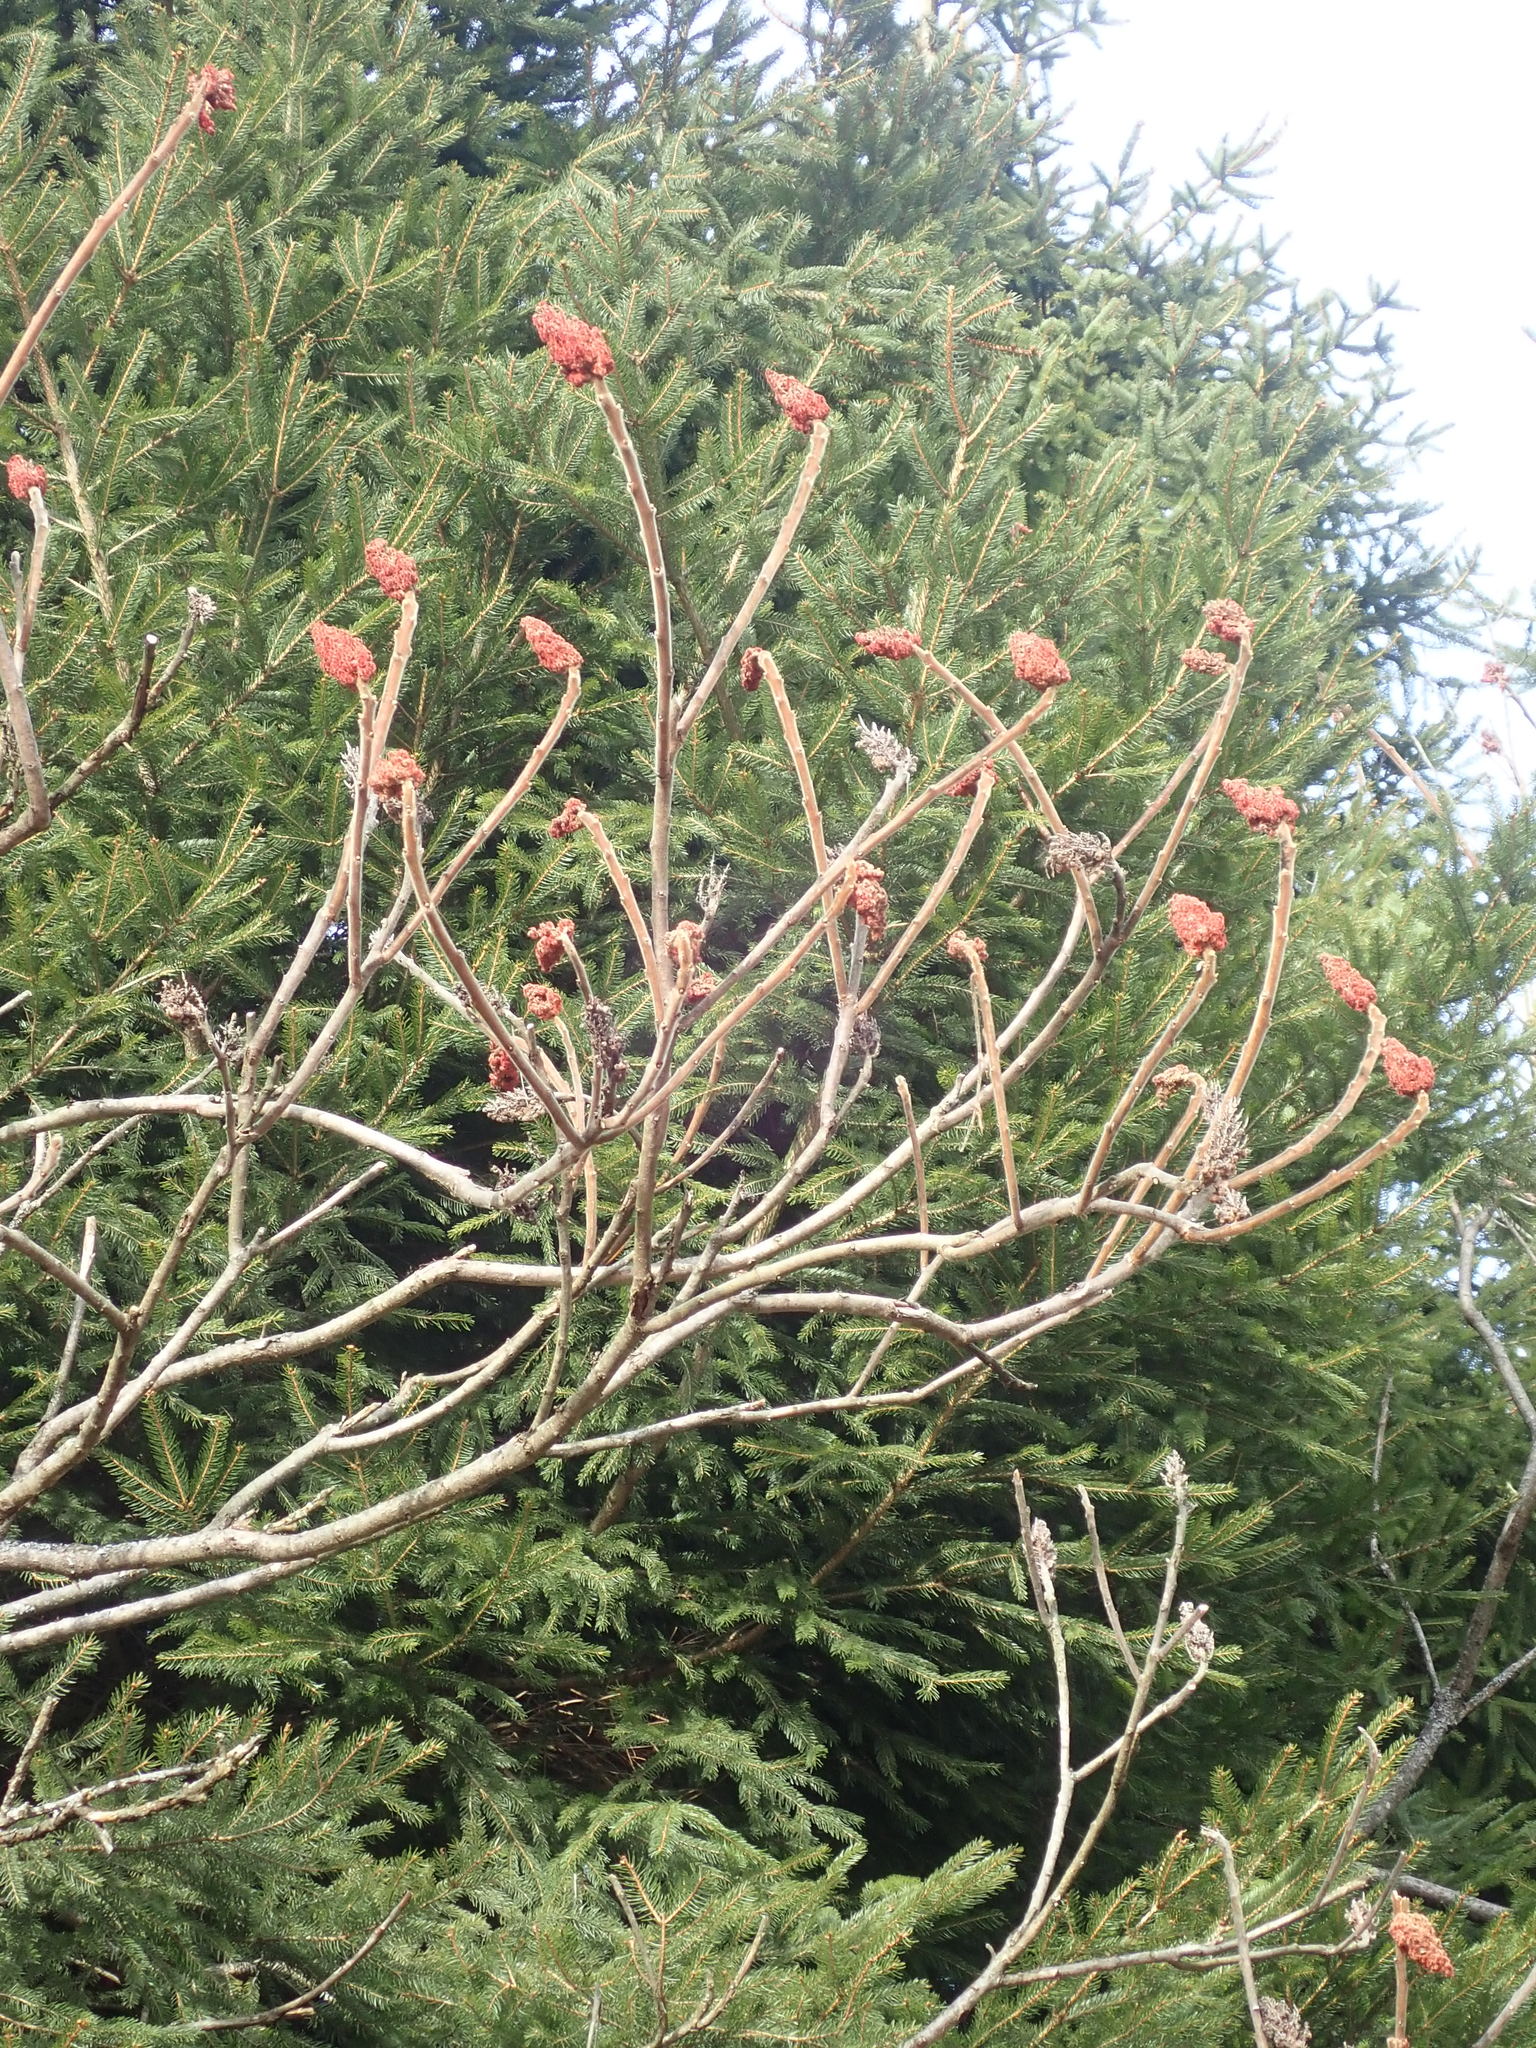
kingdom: Plantae
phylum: Tracheophyta
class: Magnoliopsida
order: Sapindales
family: Anacardiaceae
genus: Rhus
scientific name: Rhus typhina
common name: Staghorn sumac
